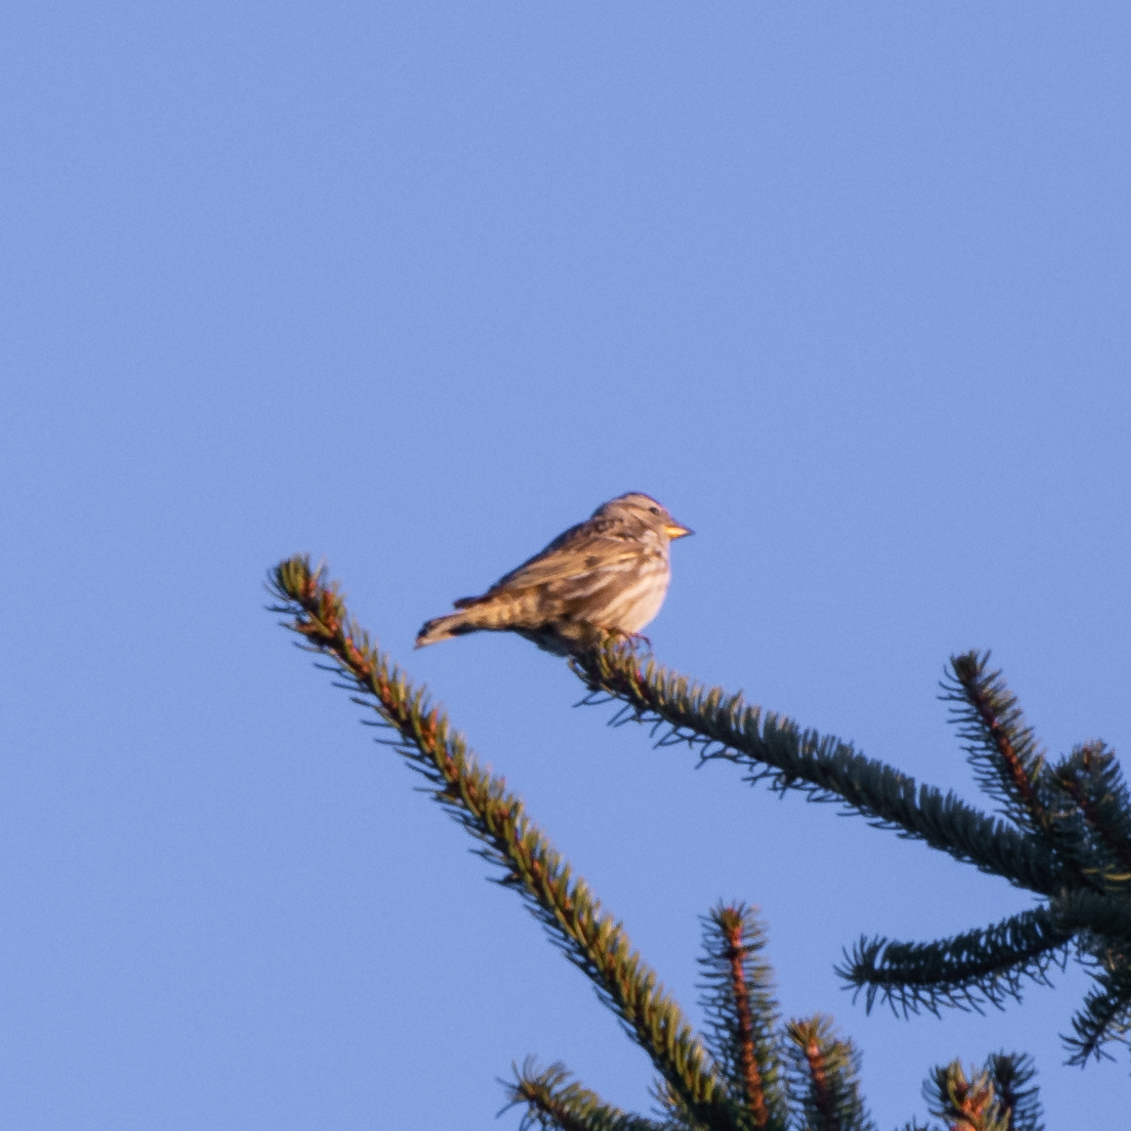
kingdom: Animalia
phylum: Chordata
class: Aves
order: Passeriformes
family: Passeridae
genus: Petronia
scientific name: Petronia petronia
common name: Rock sparrow
